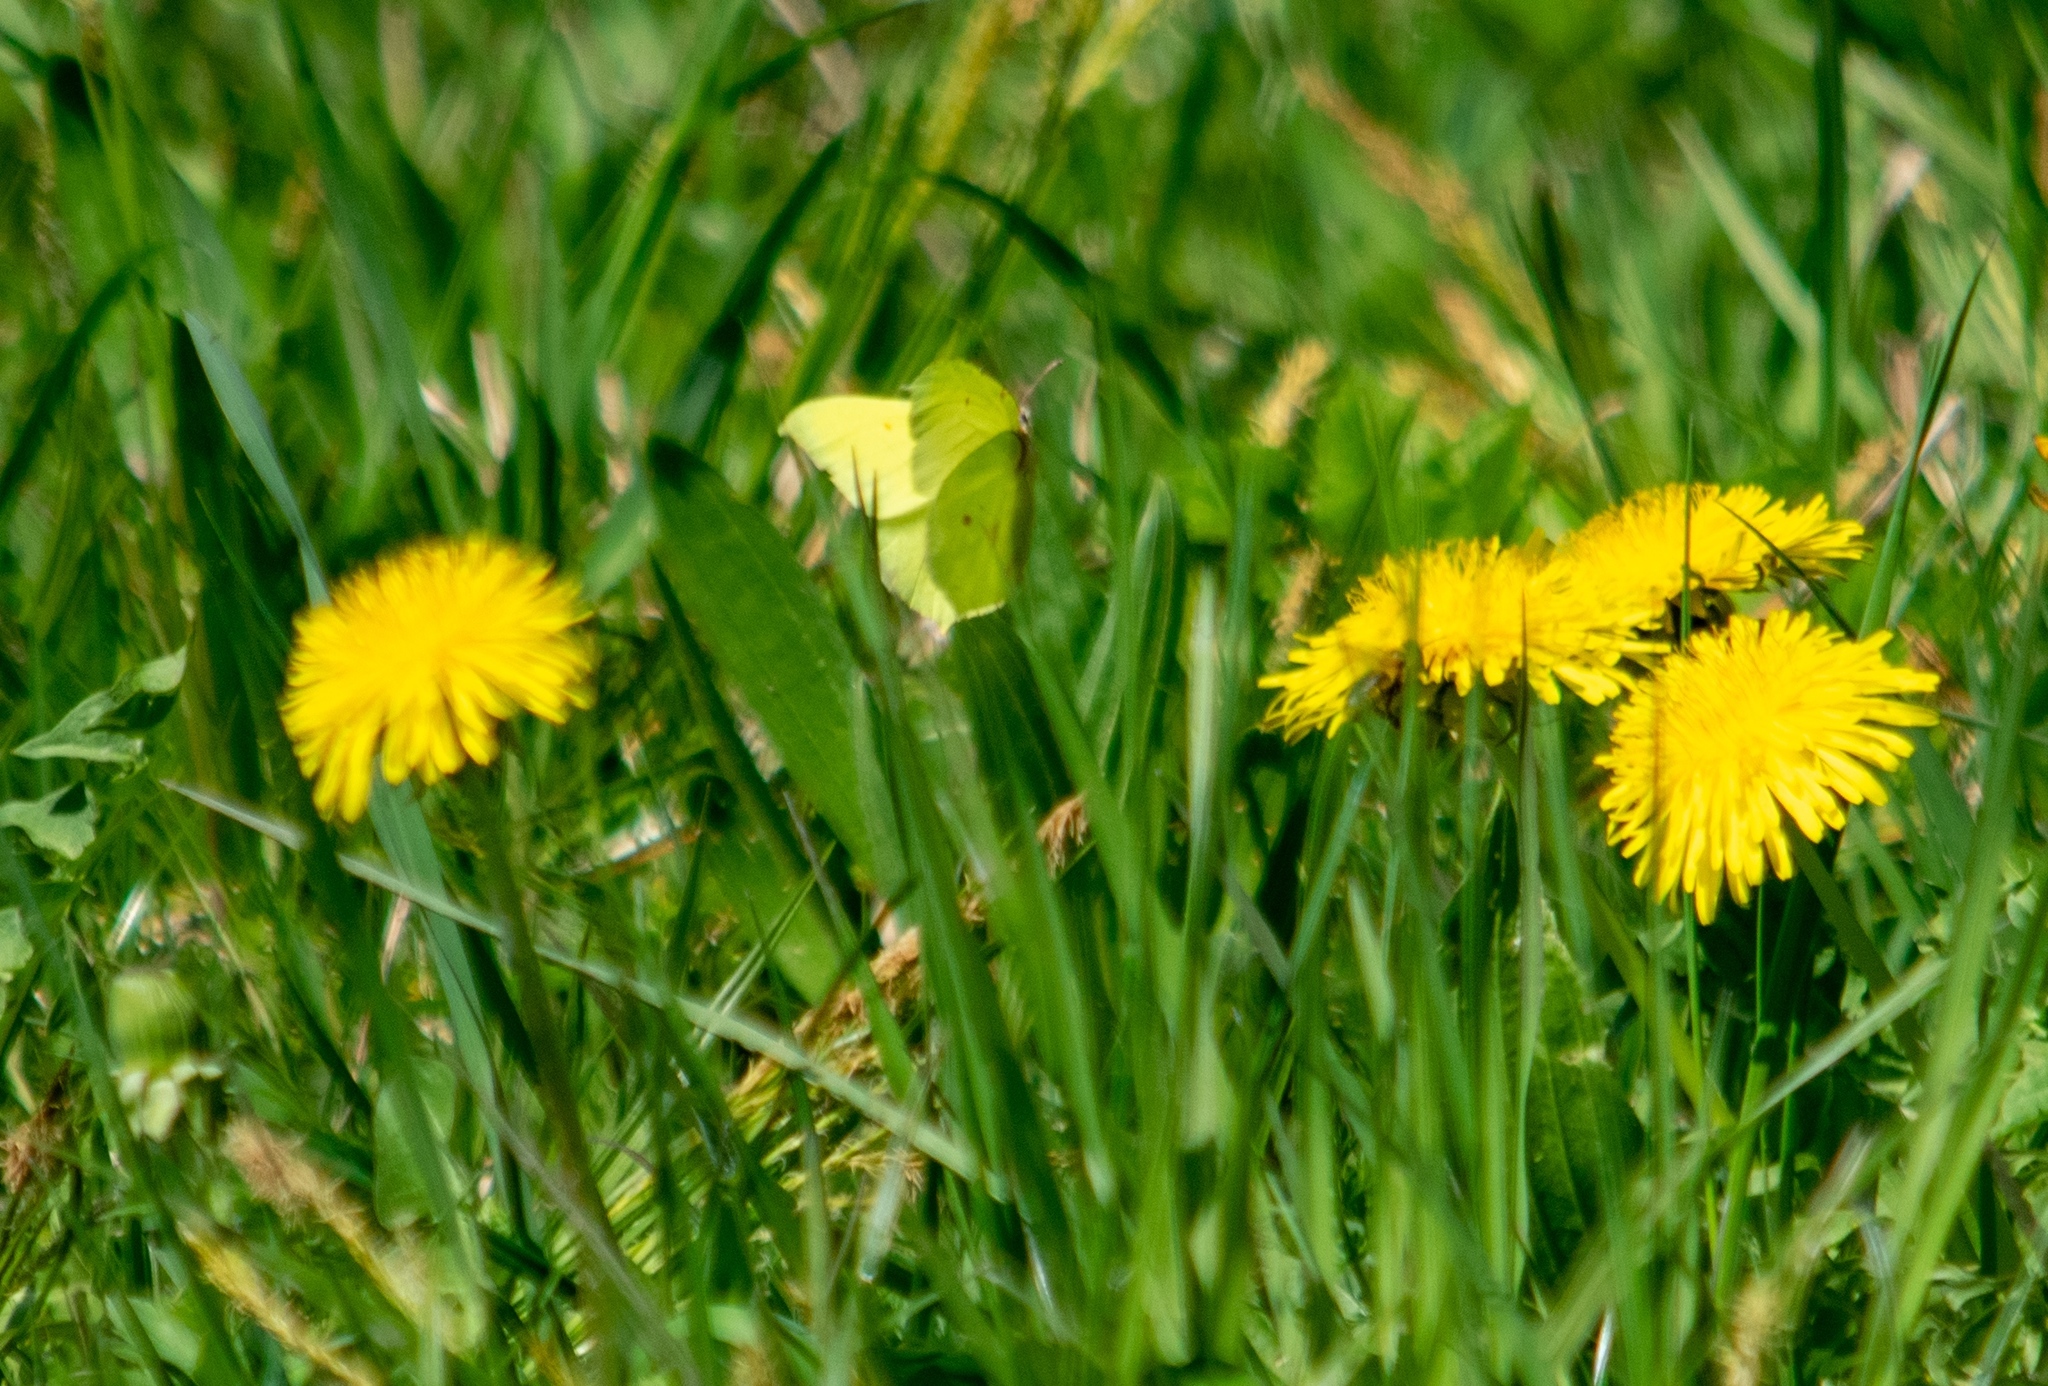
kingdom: Plantae
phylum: Tracheophyta
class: Magnoliopsida
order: Asterales
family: Asteraceae
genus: Taraxacum
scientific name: Taraxacum officinale
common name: Common dandelion
